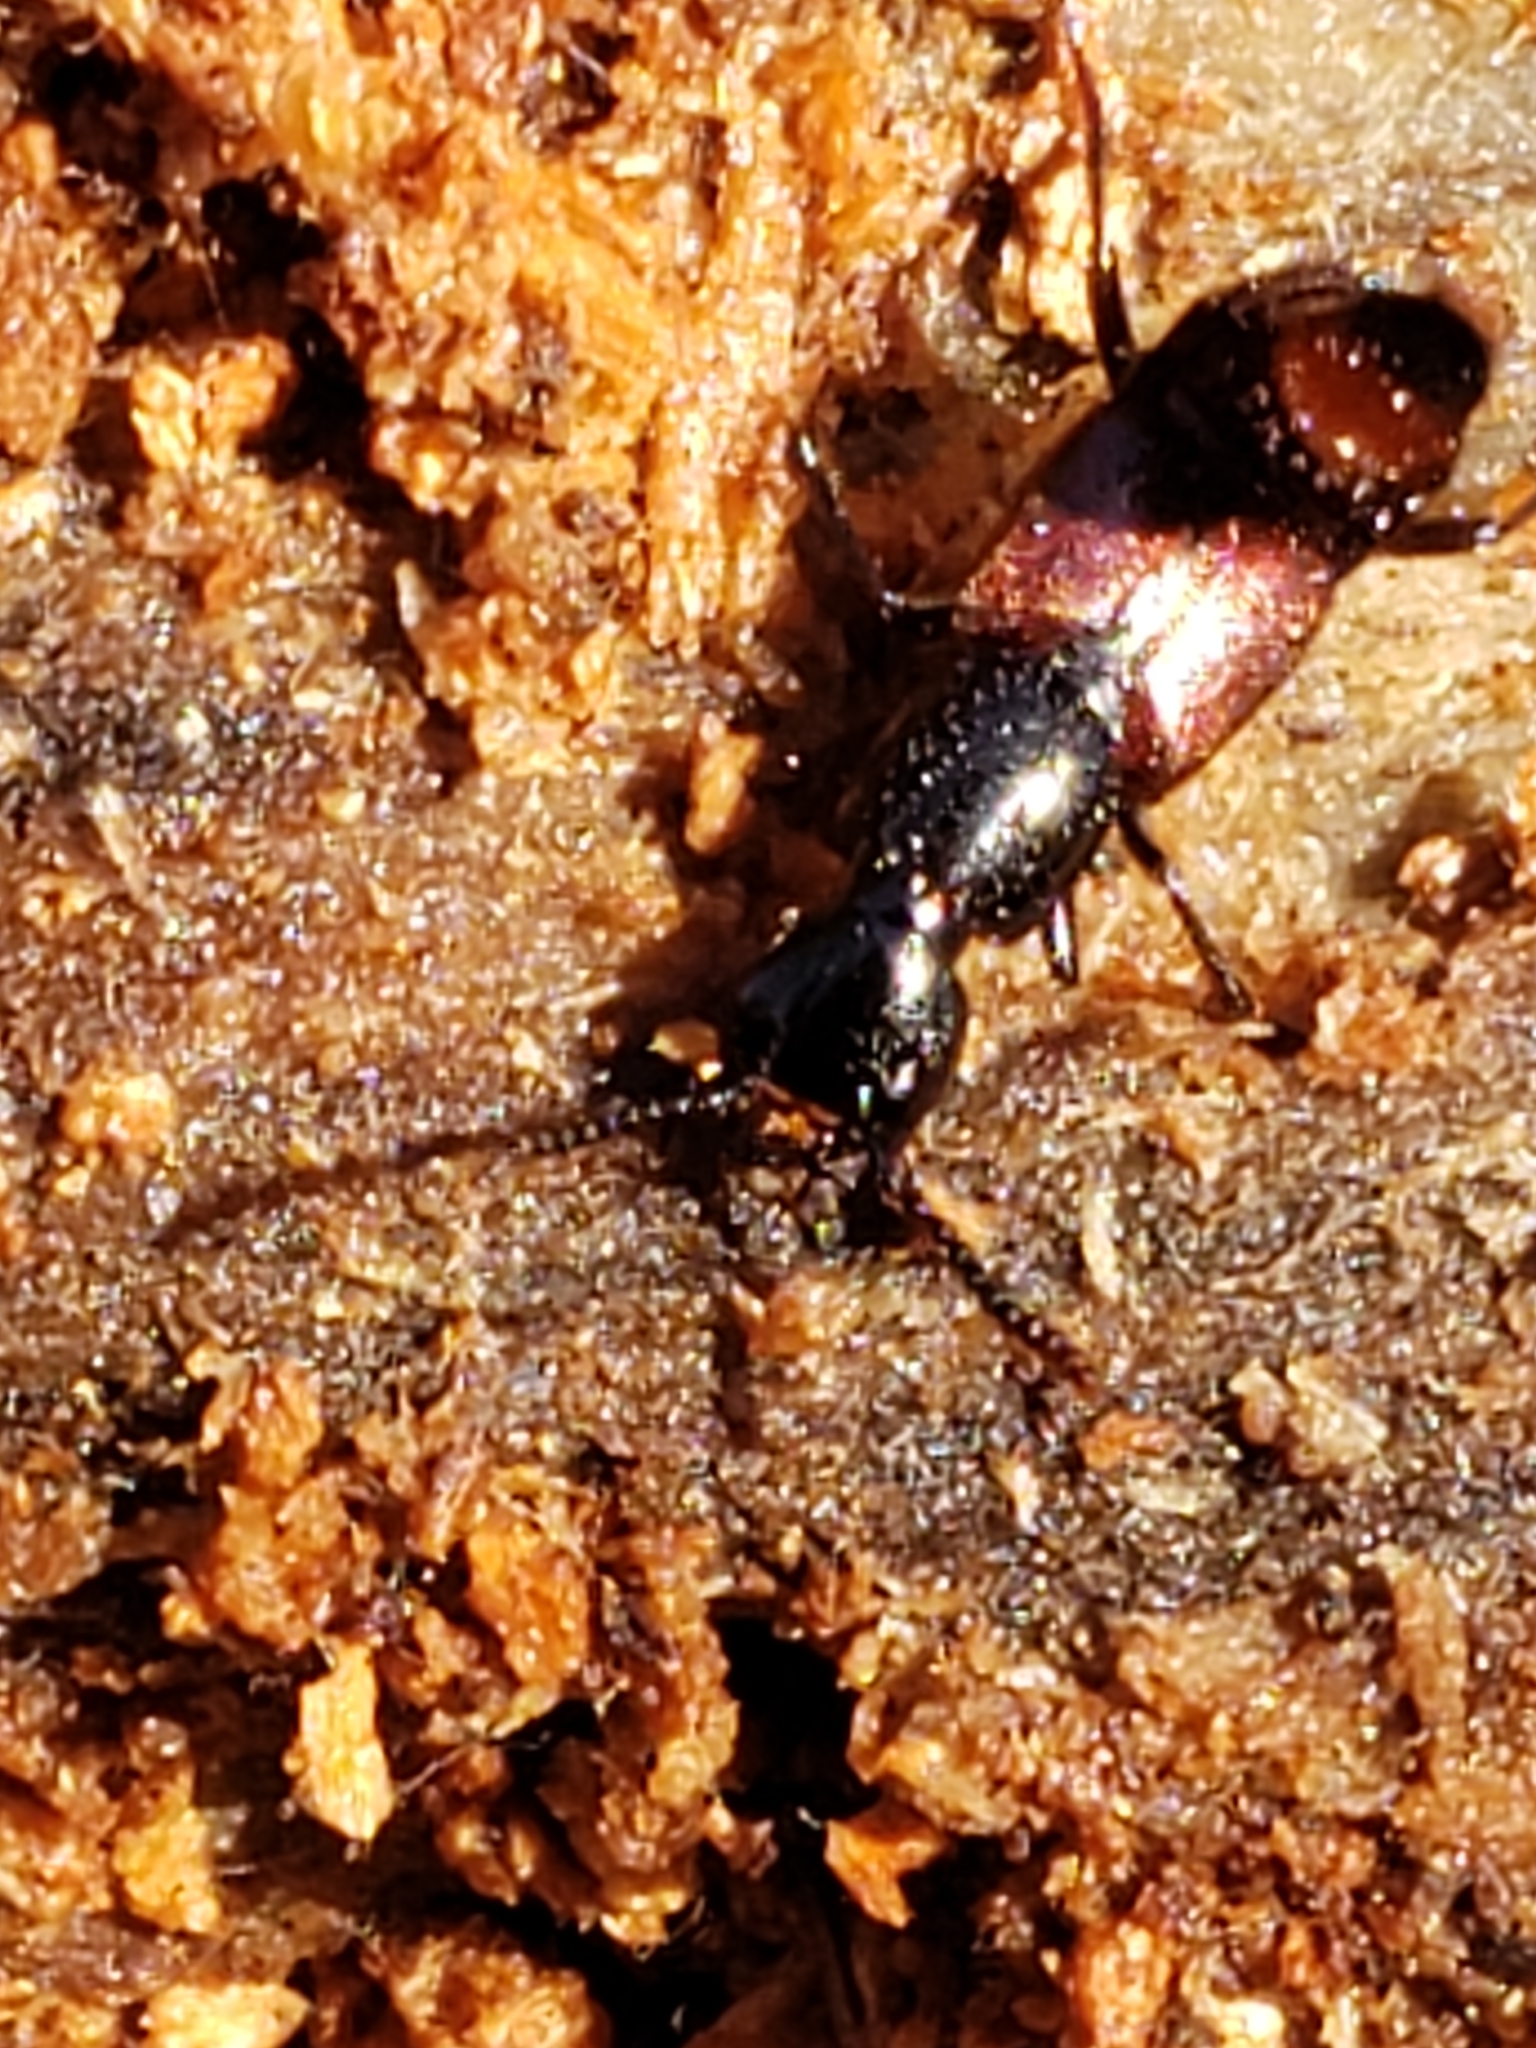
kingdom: Animalia
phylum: Arthropoda
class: Insecta
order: Coleoptera
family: Staphylinidae
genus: Hesperus
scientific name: Hesperus baltimorensis
